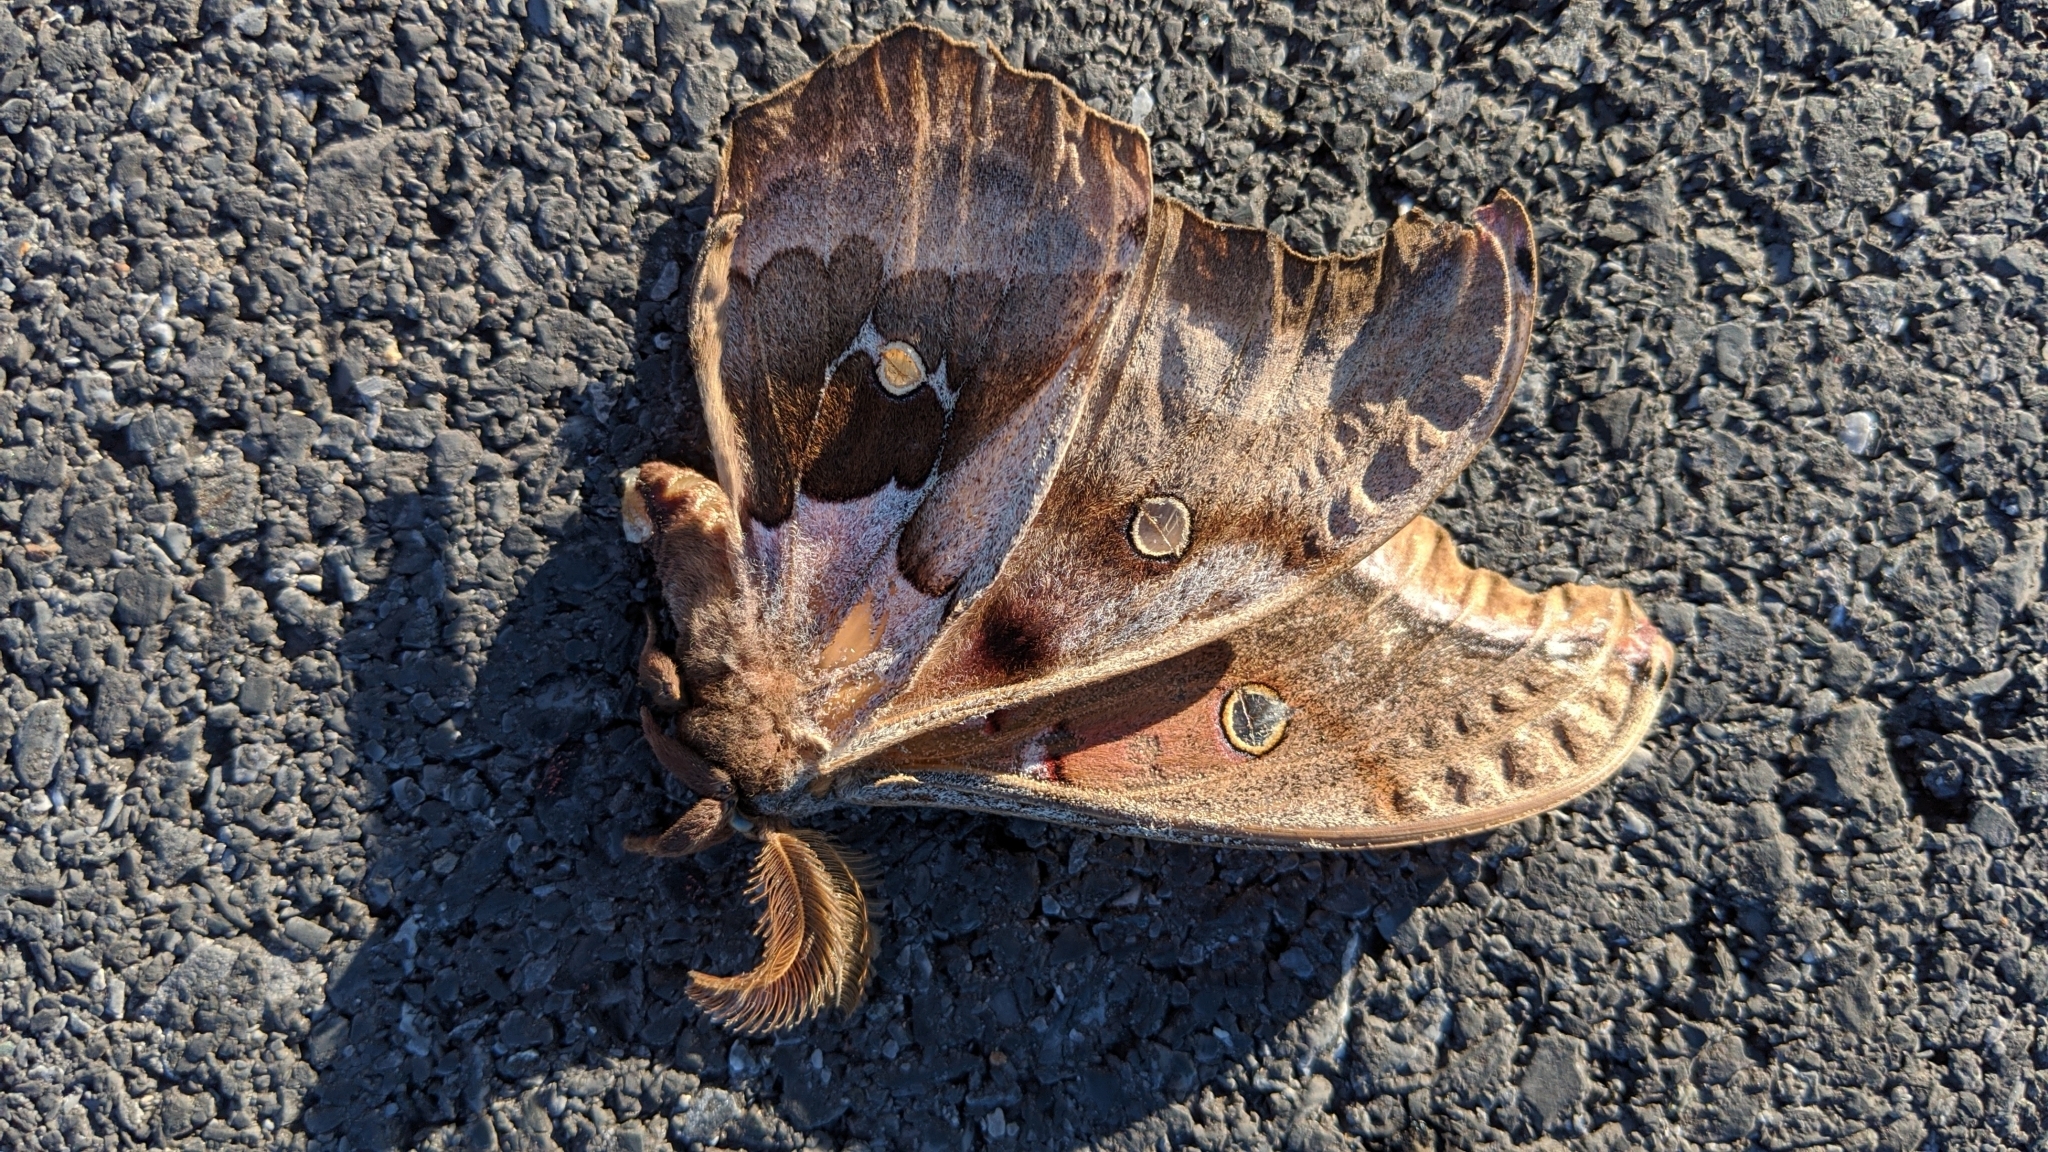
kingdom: Animalia
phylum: Arthropoda
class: Insecta
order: Lepidoptera
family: Saturniidae
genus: Antheraea
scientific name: Antheraea polyphemus
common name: Polyphemus moth
